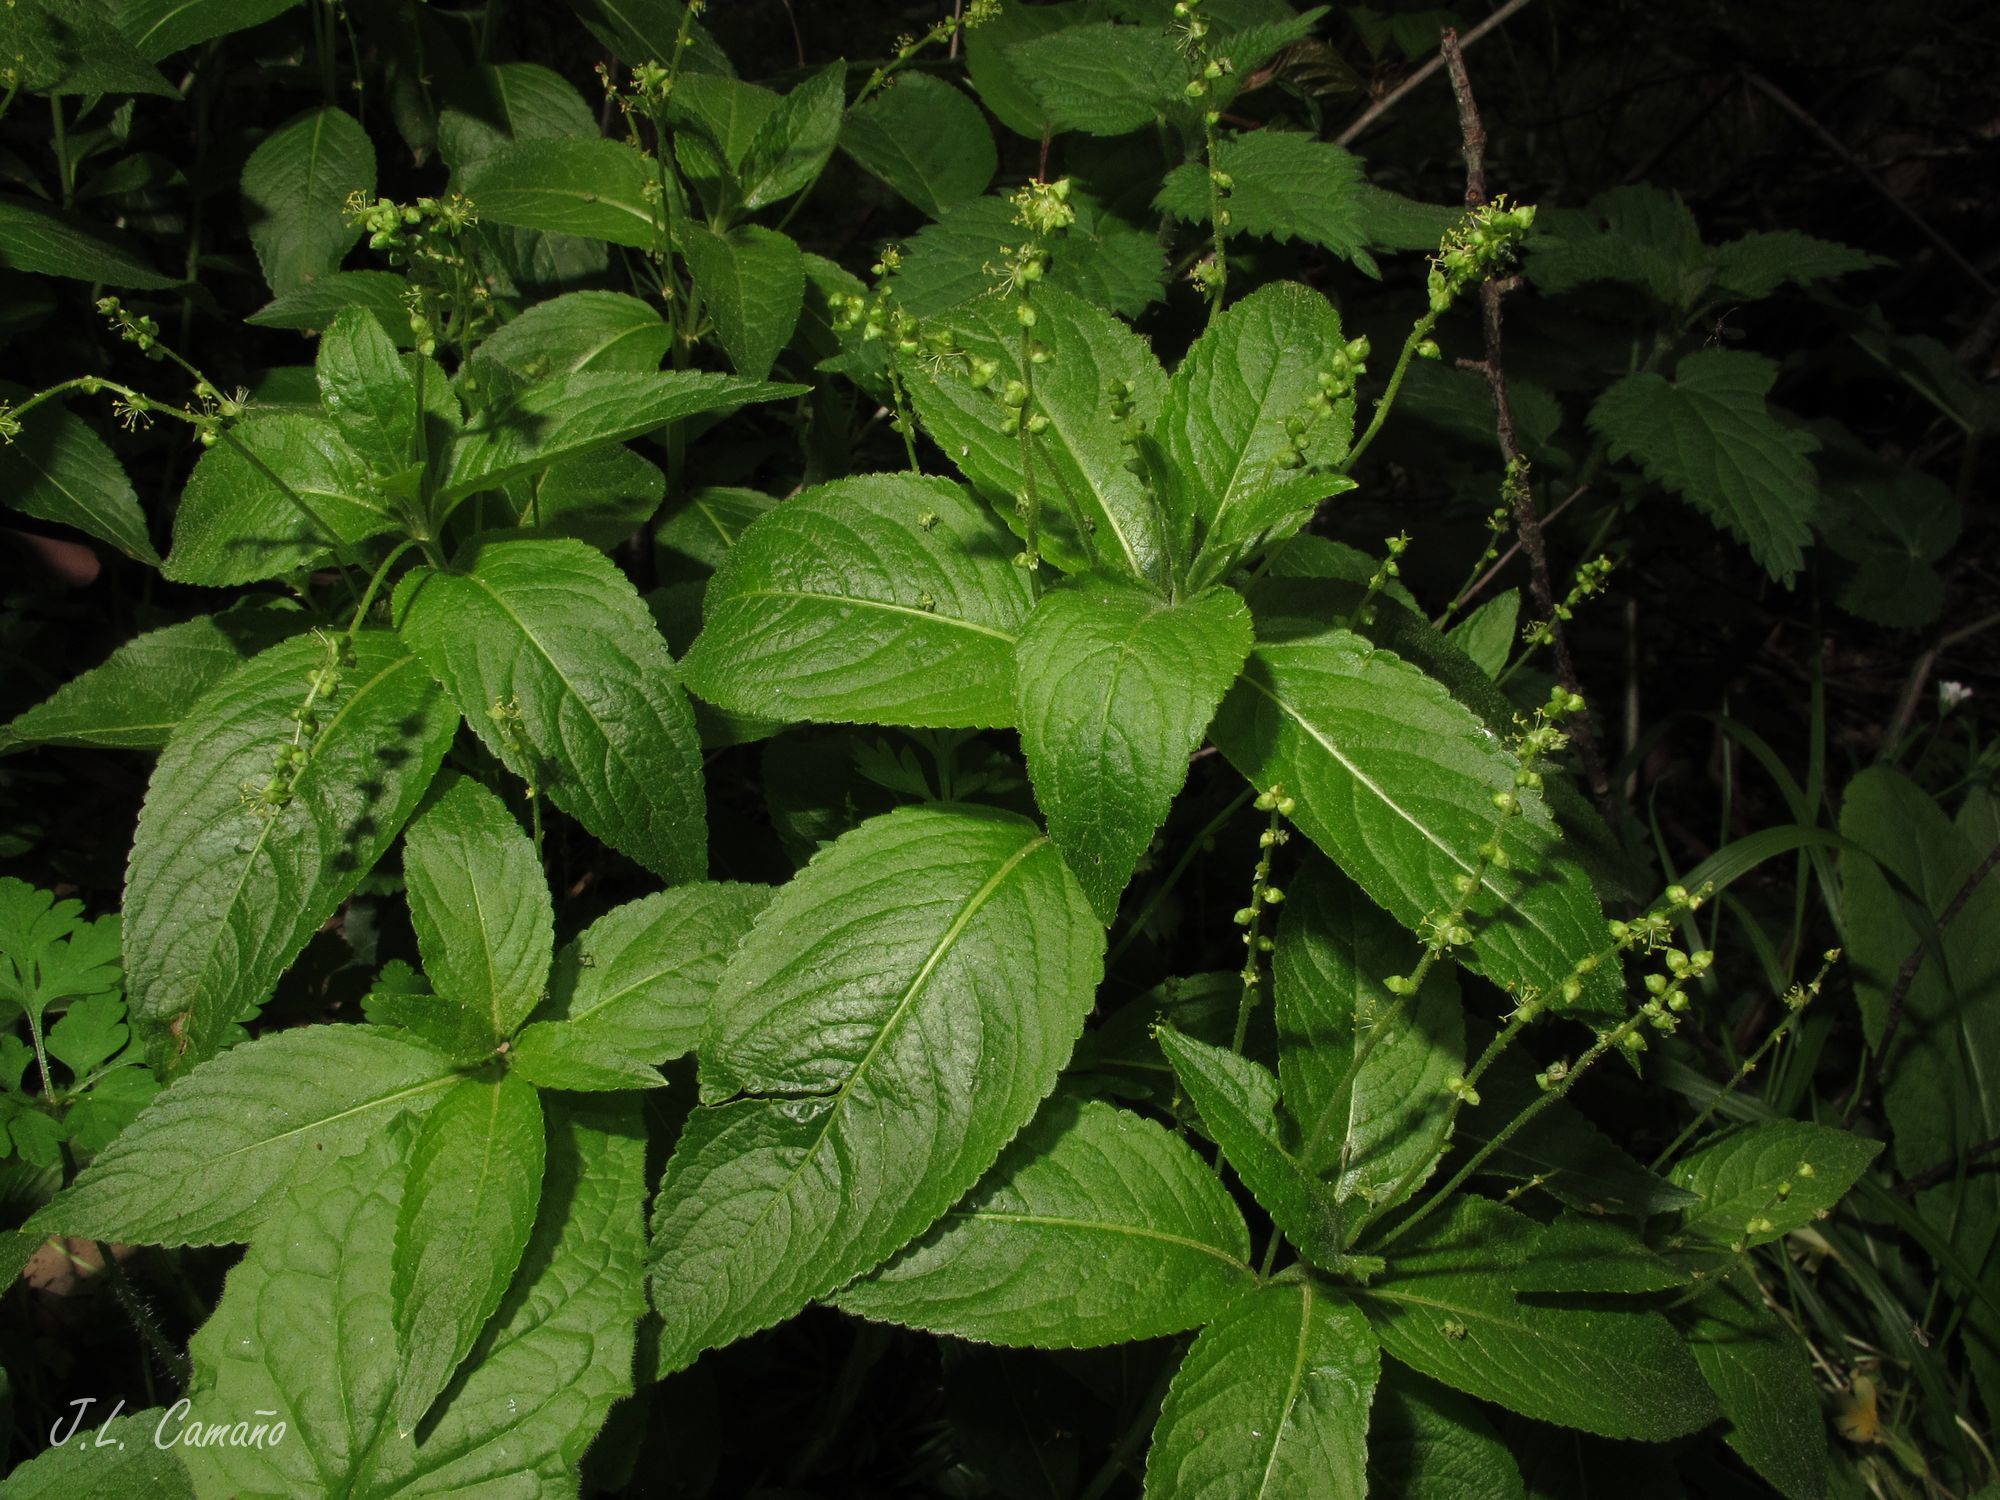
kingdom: Plantae
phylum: Tracheophyta
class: Magnoliopsida
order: Malpighiales
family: Euphorbiaceae
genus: Mercurialis
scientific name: Mercurialis perennis
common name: Dog mercury
